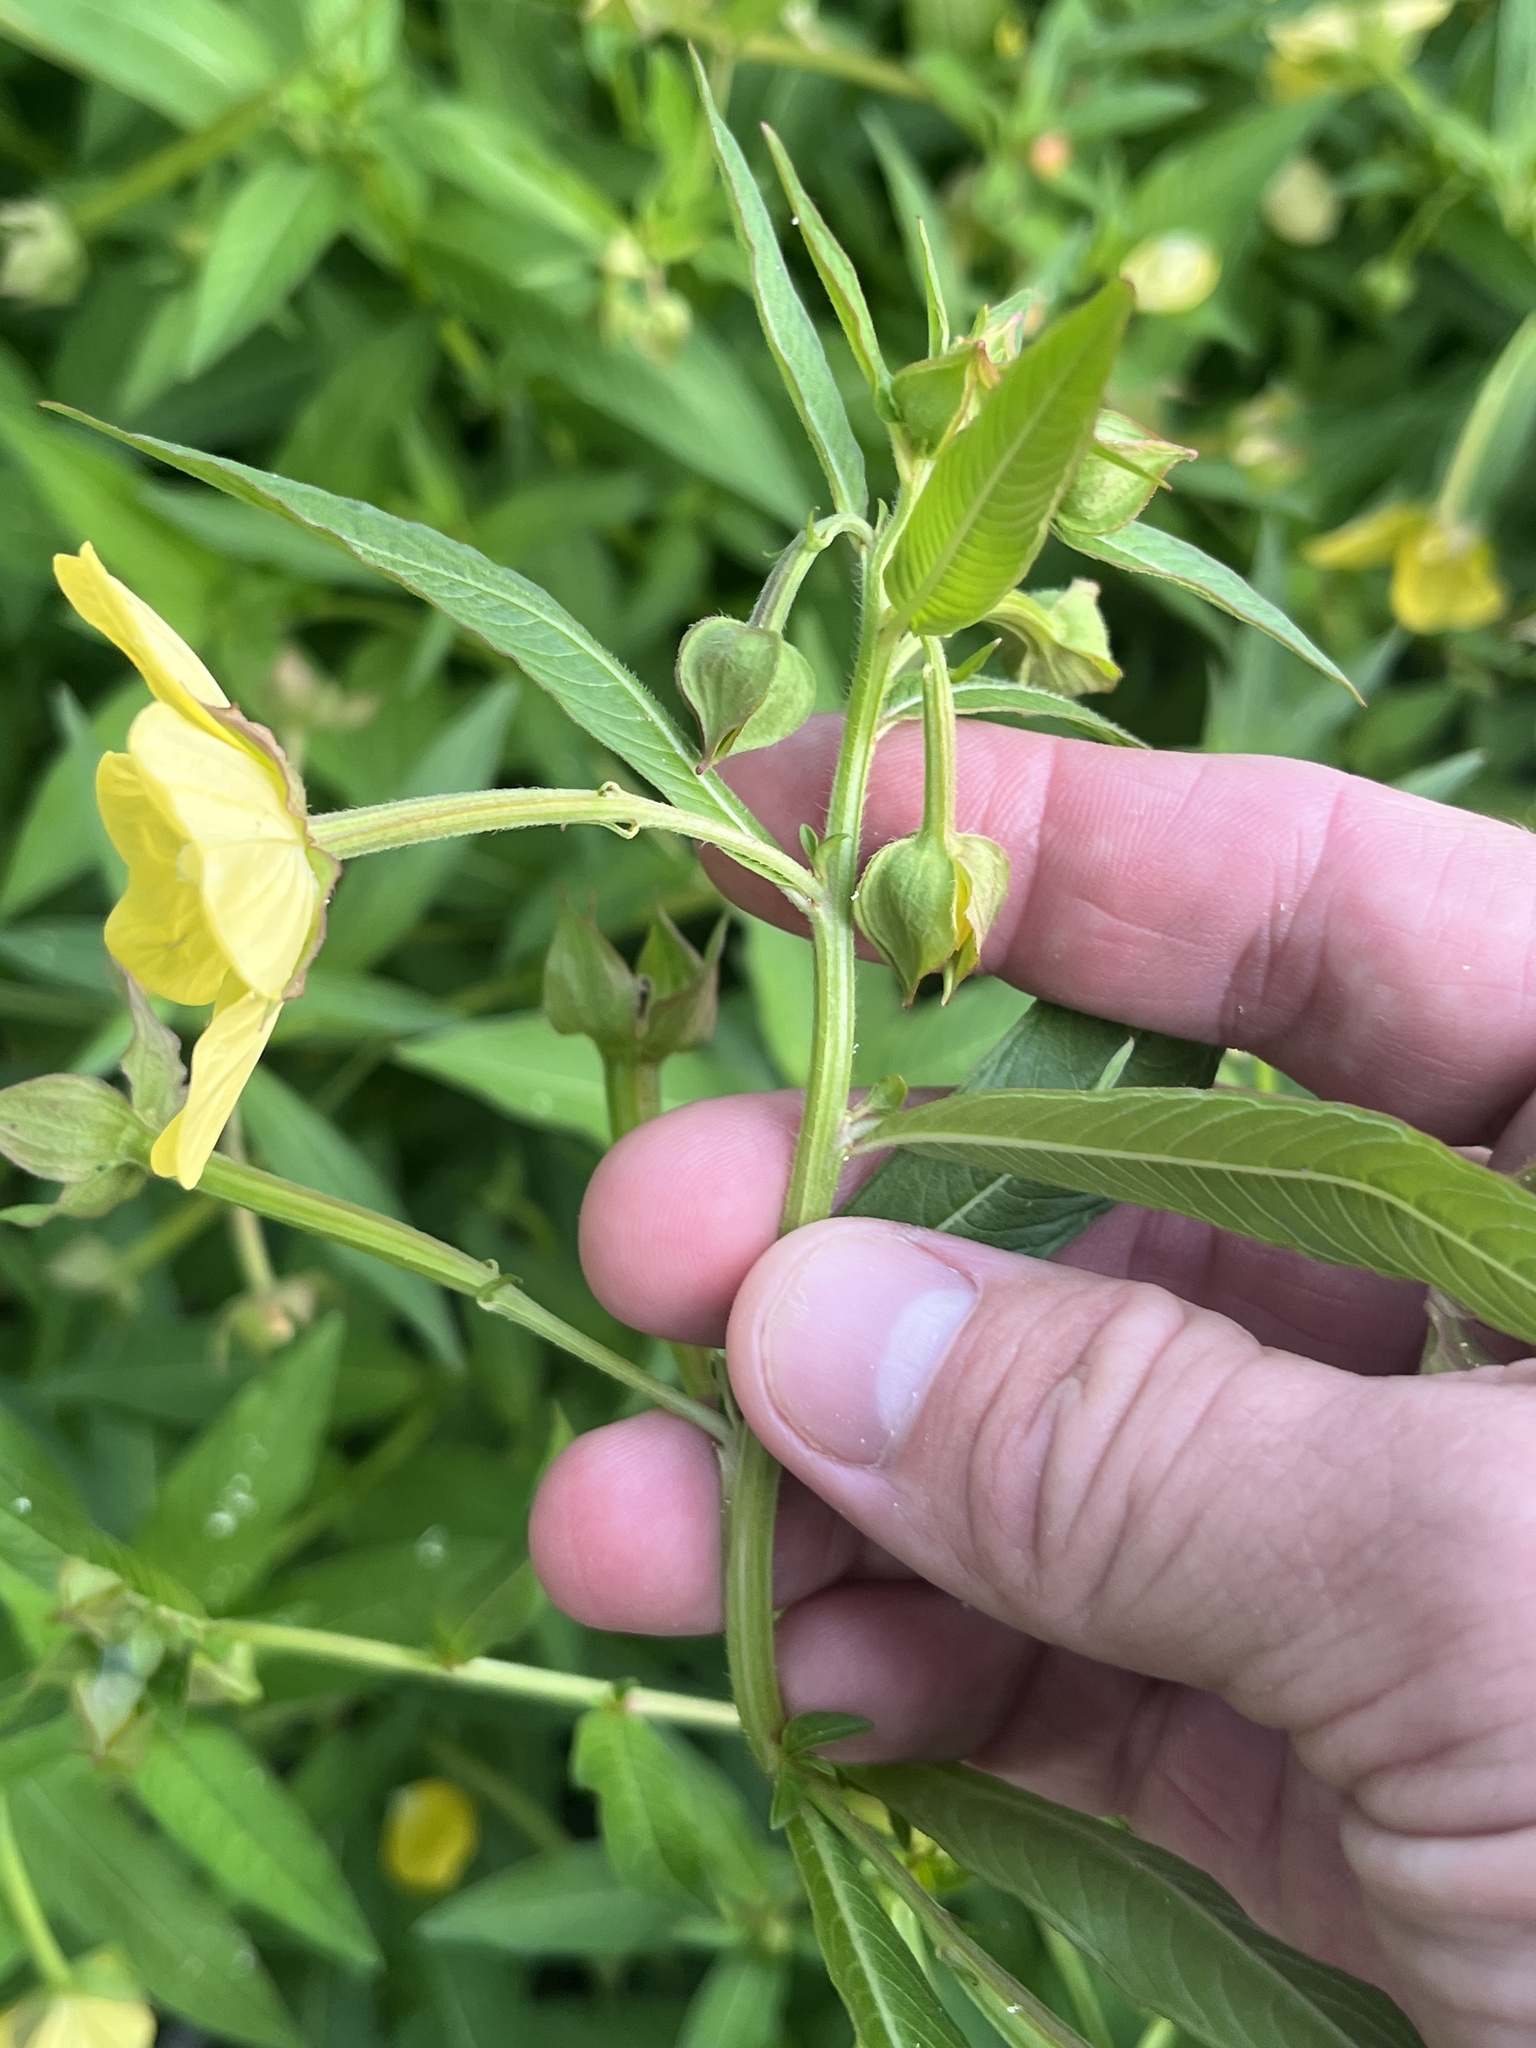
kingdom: Plantae
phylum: Tracheophyta
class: Magnoliopsida
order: Myrtales
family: Onagraceae
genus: Ludwigia
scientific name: Ludwigia octovalvis
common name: Water-primrose
